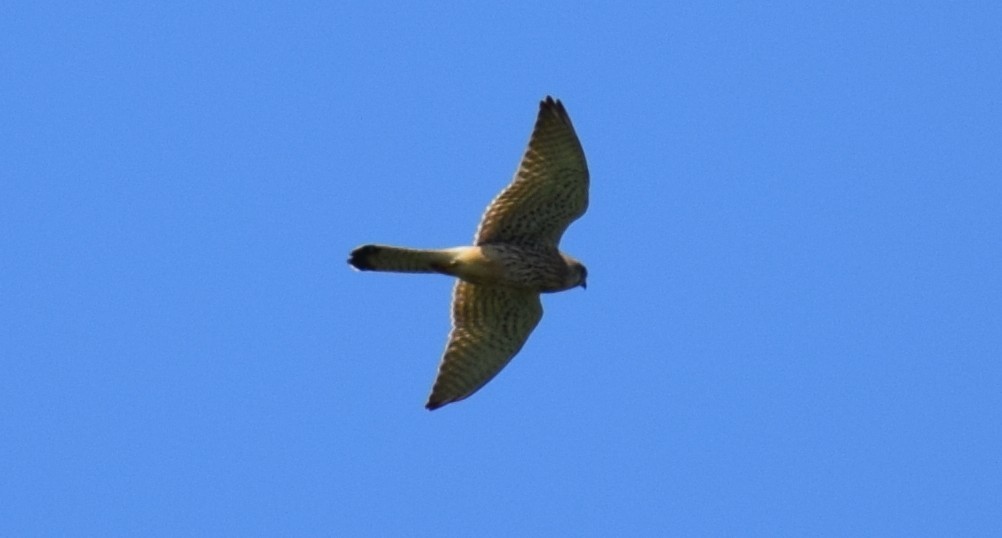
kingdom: Animalia
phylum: Chordata
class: Aves
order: Falconiformes
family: Falconidae
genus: Falco
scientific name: Falco tinnunculus
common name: Common kestrel
